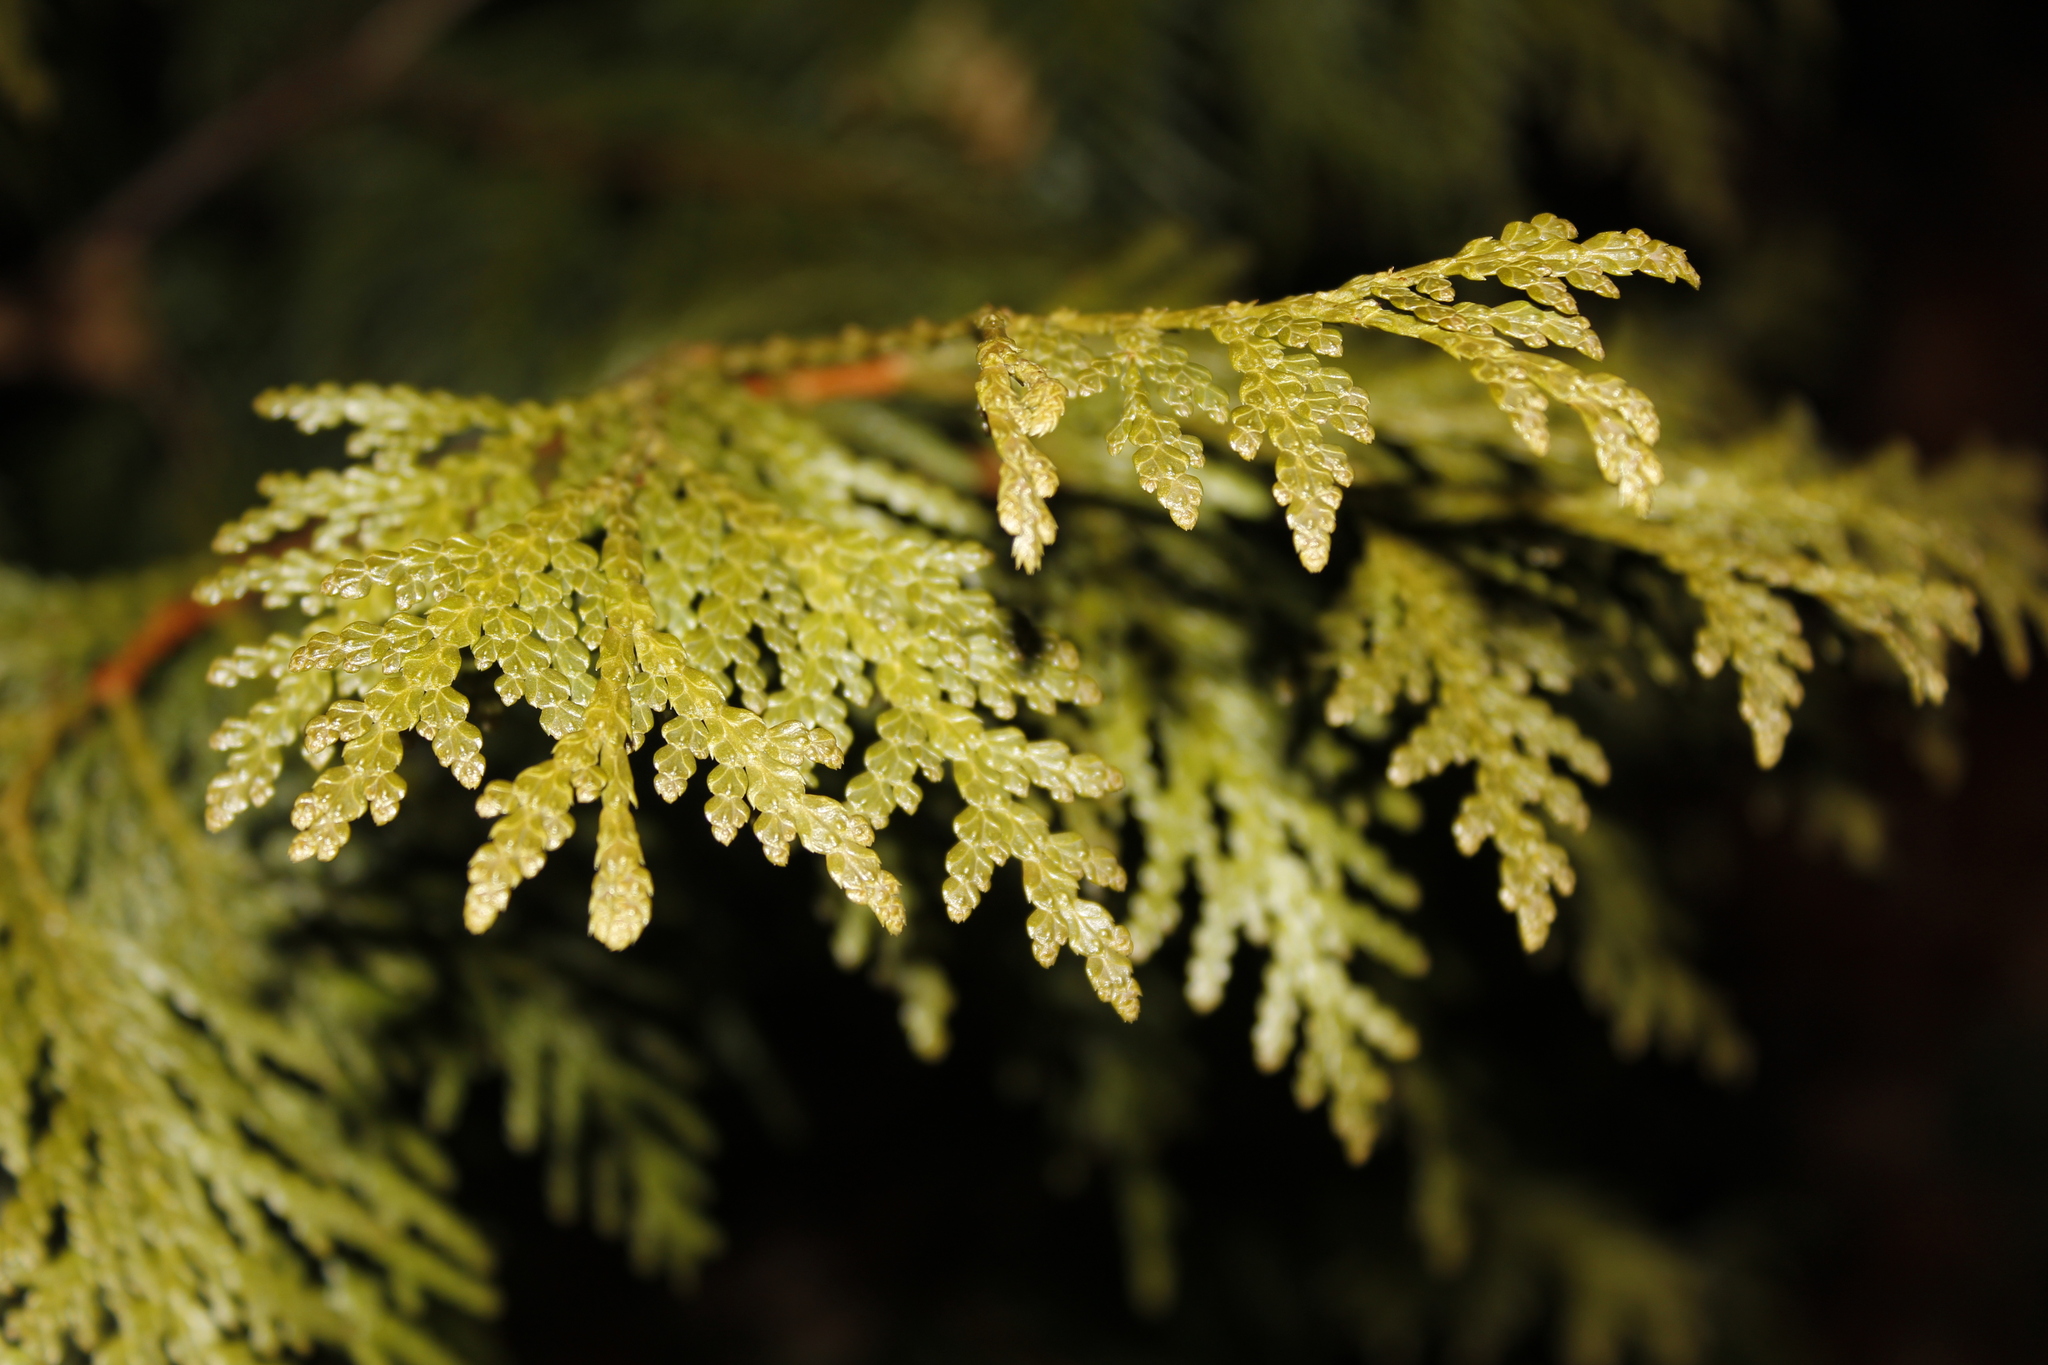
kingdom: Plantae
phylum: Tracheophyta
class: Pinopsida
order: Pinales
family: Cupressaceae
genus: Thuja
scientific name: Thuja occidentalis
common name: Northern white-cedar
